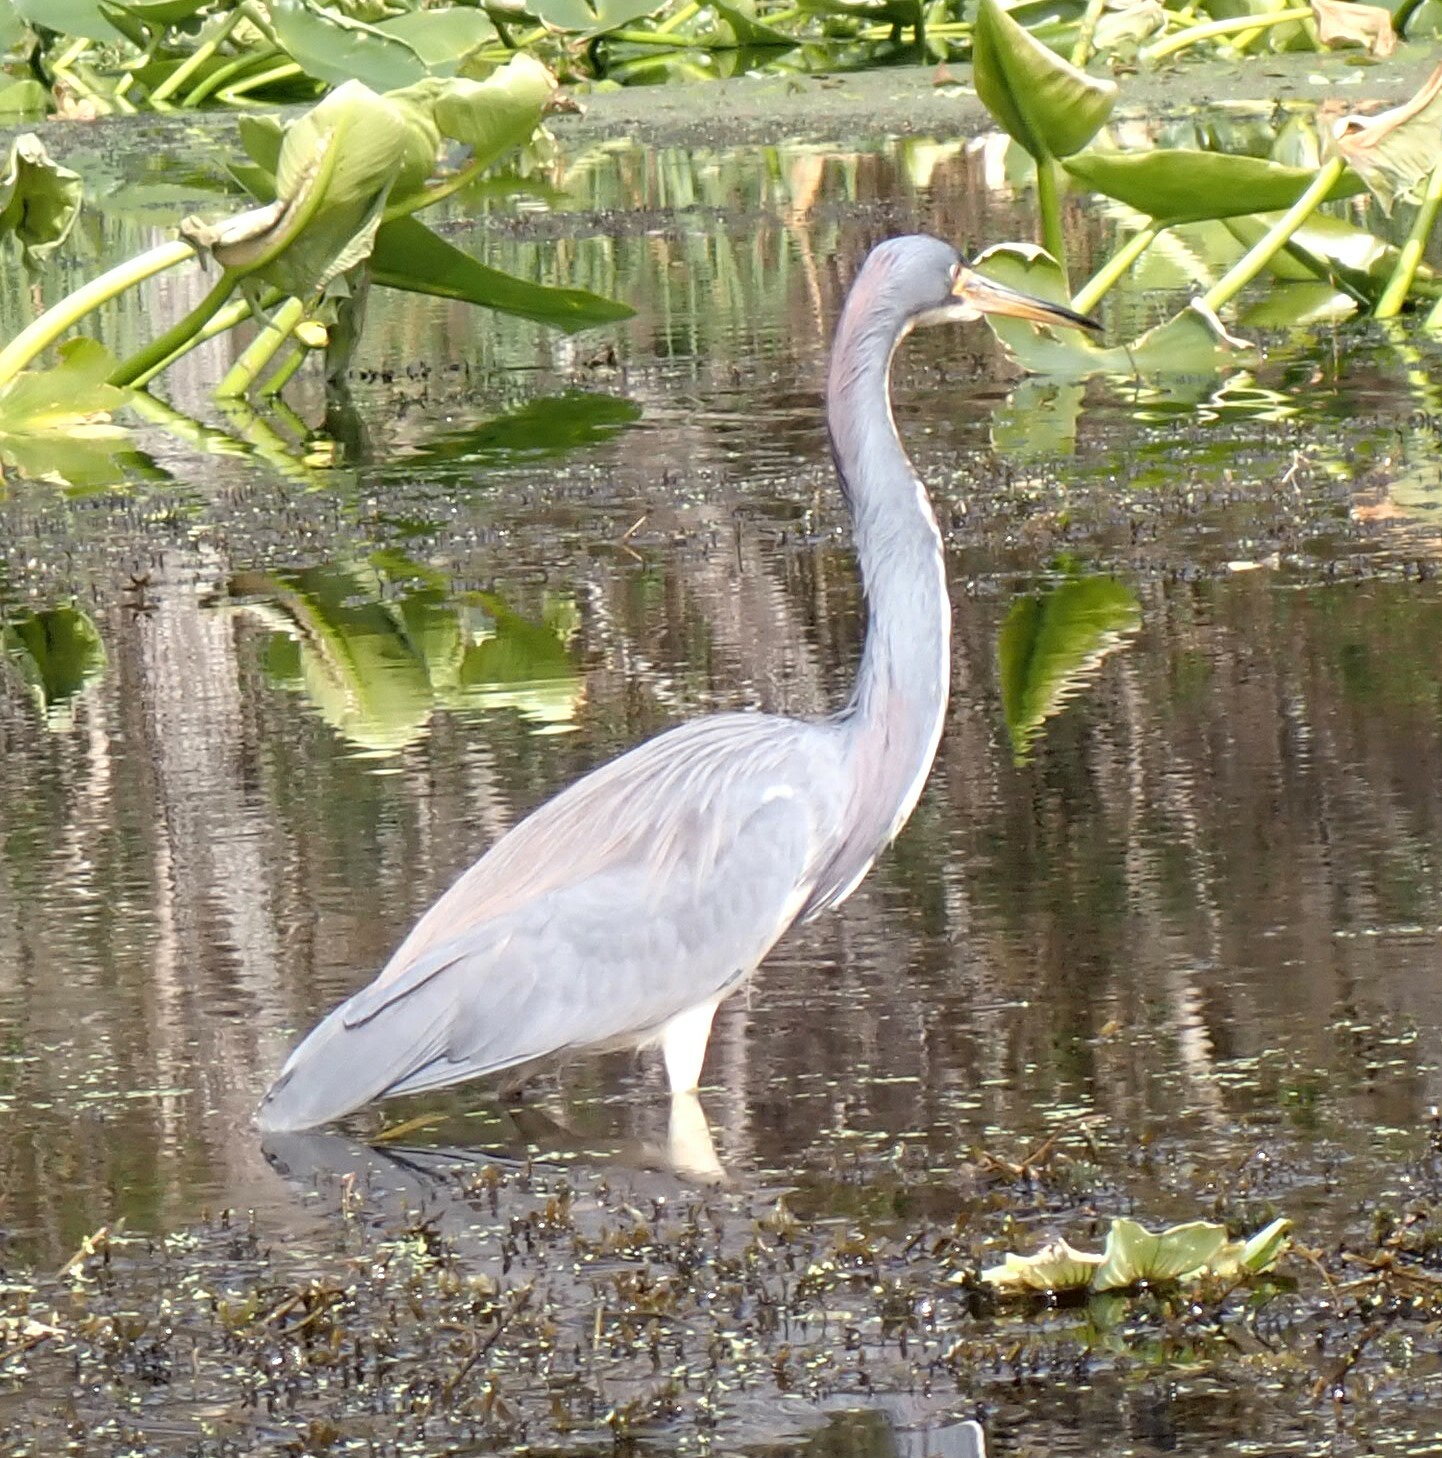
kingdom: Animalia
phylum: Chordata
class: Aves
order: Pelecaniformes
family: Ardeidae
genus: Egretta
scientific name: Egretta tricolor
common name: Tricolored heron
